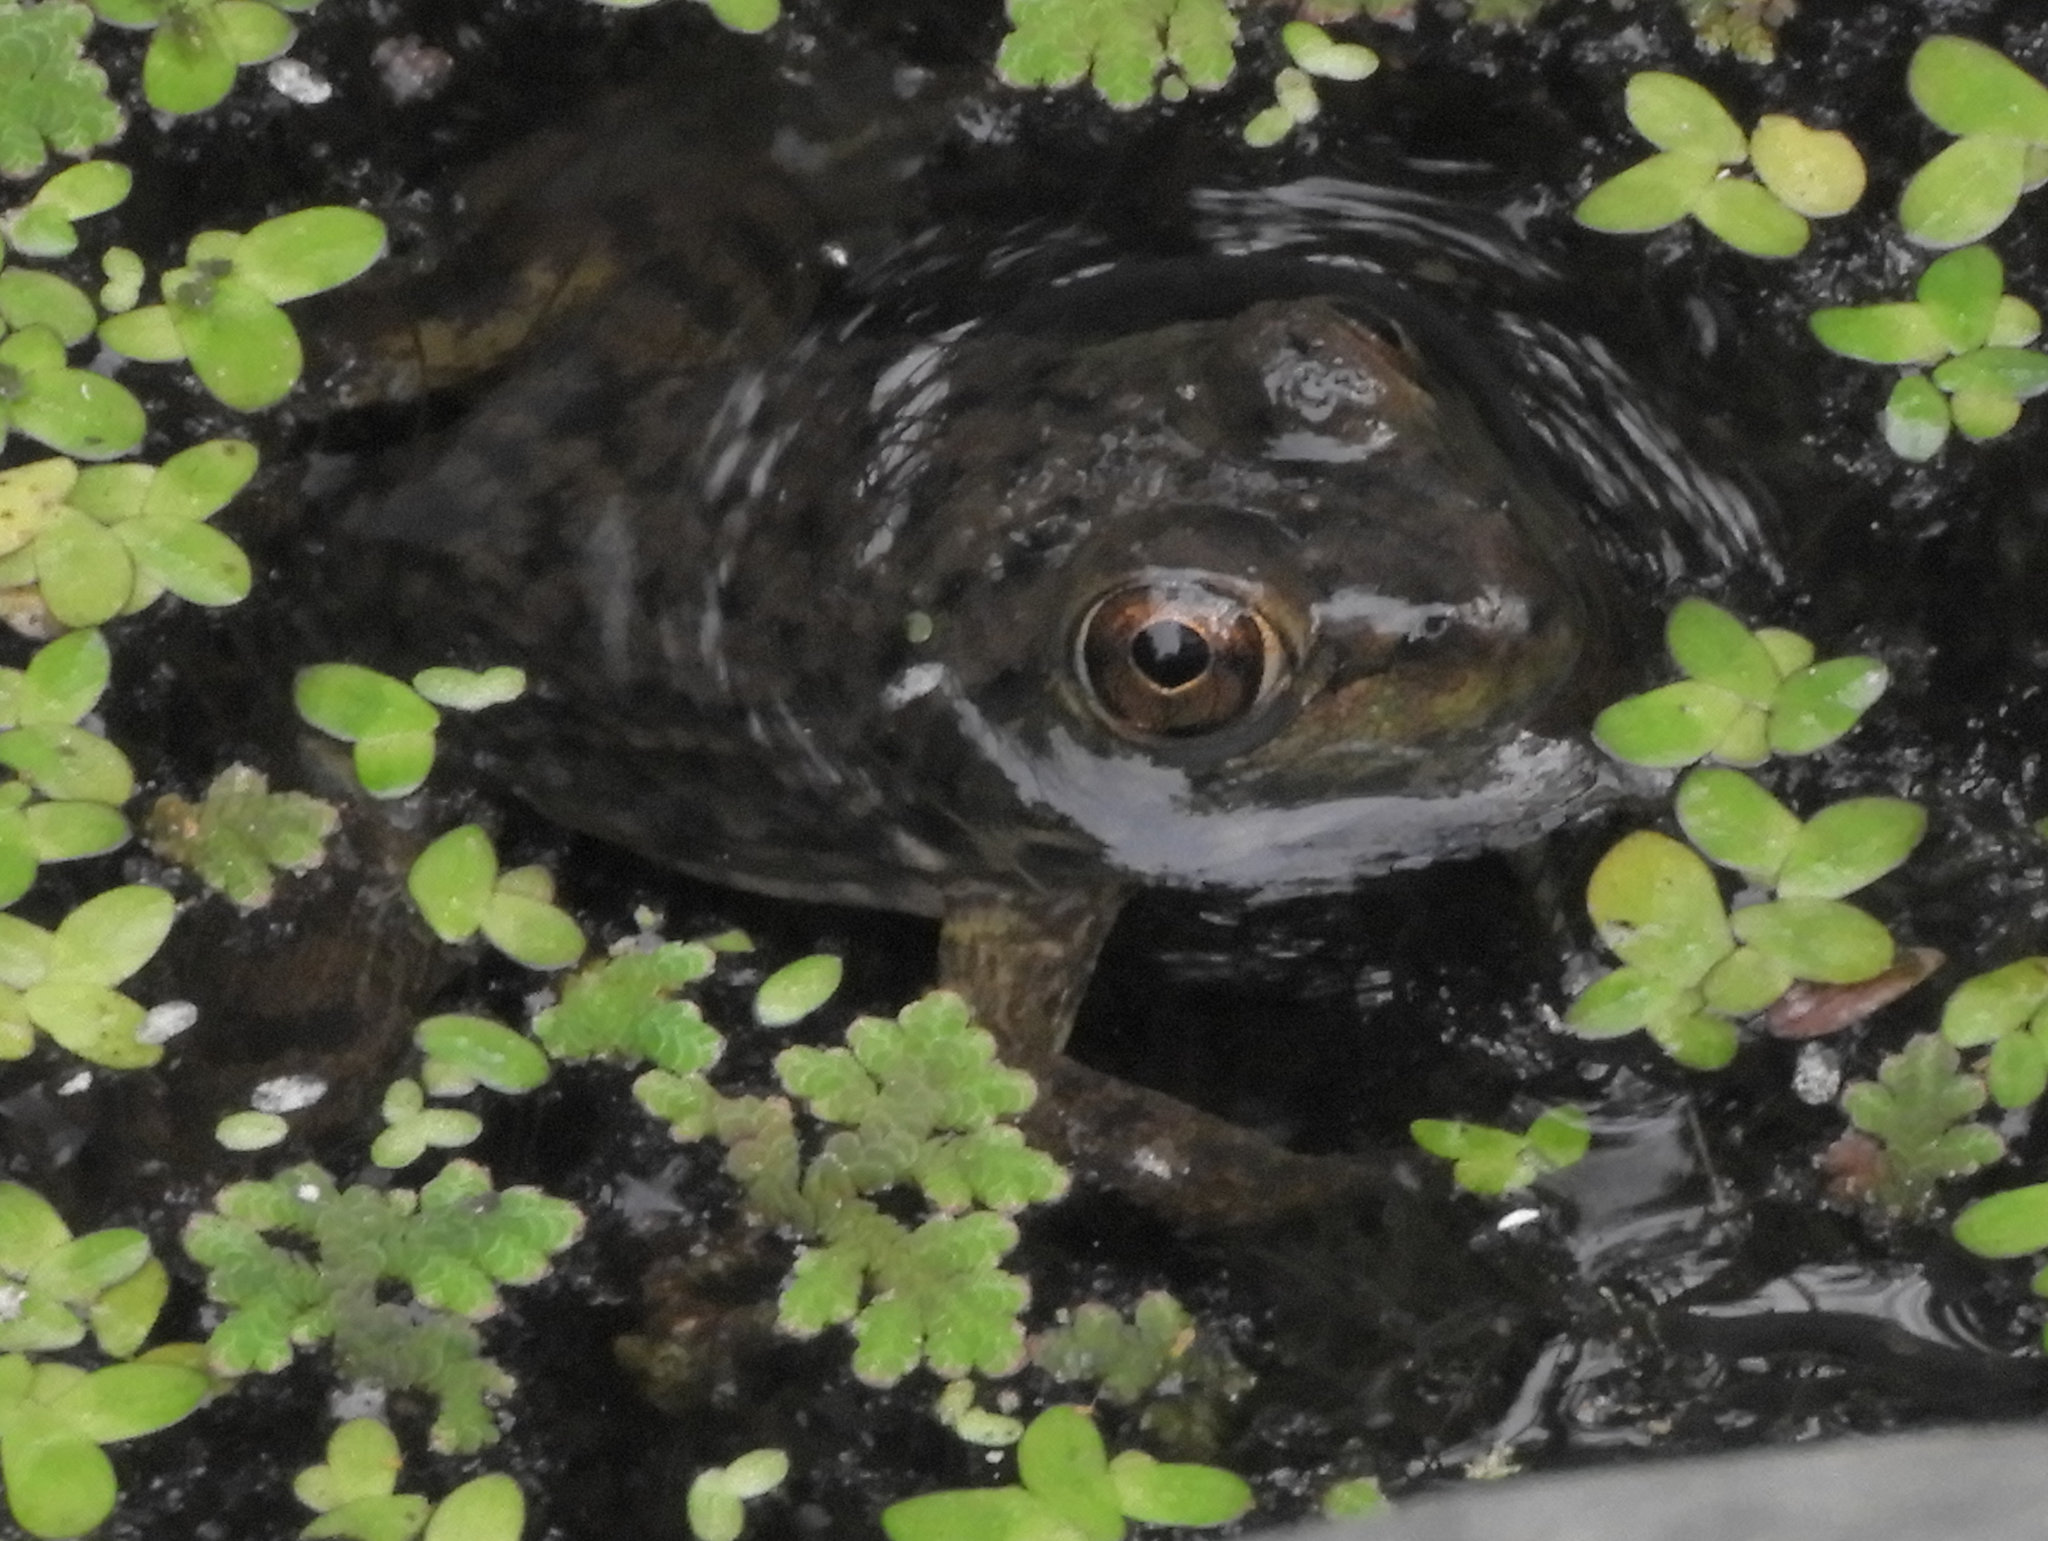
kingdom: Animalia
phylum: Chordata
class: Amphibia
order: Anura
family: Ranidae
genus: Lithobates
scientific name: Lithobates catesbeianus
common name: American bullfrog
